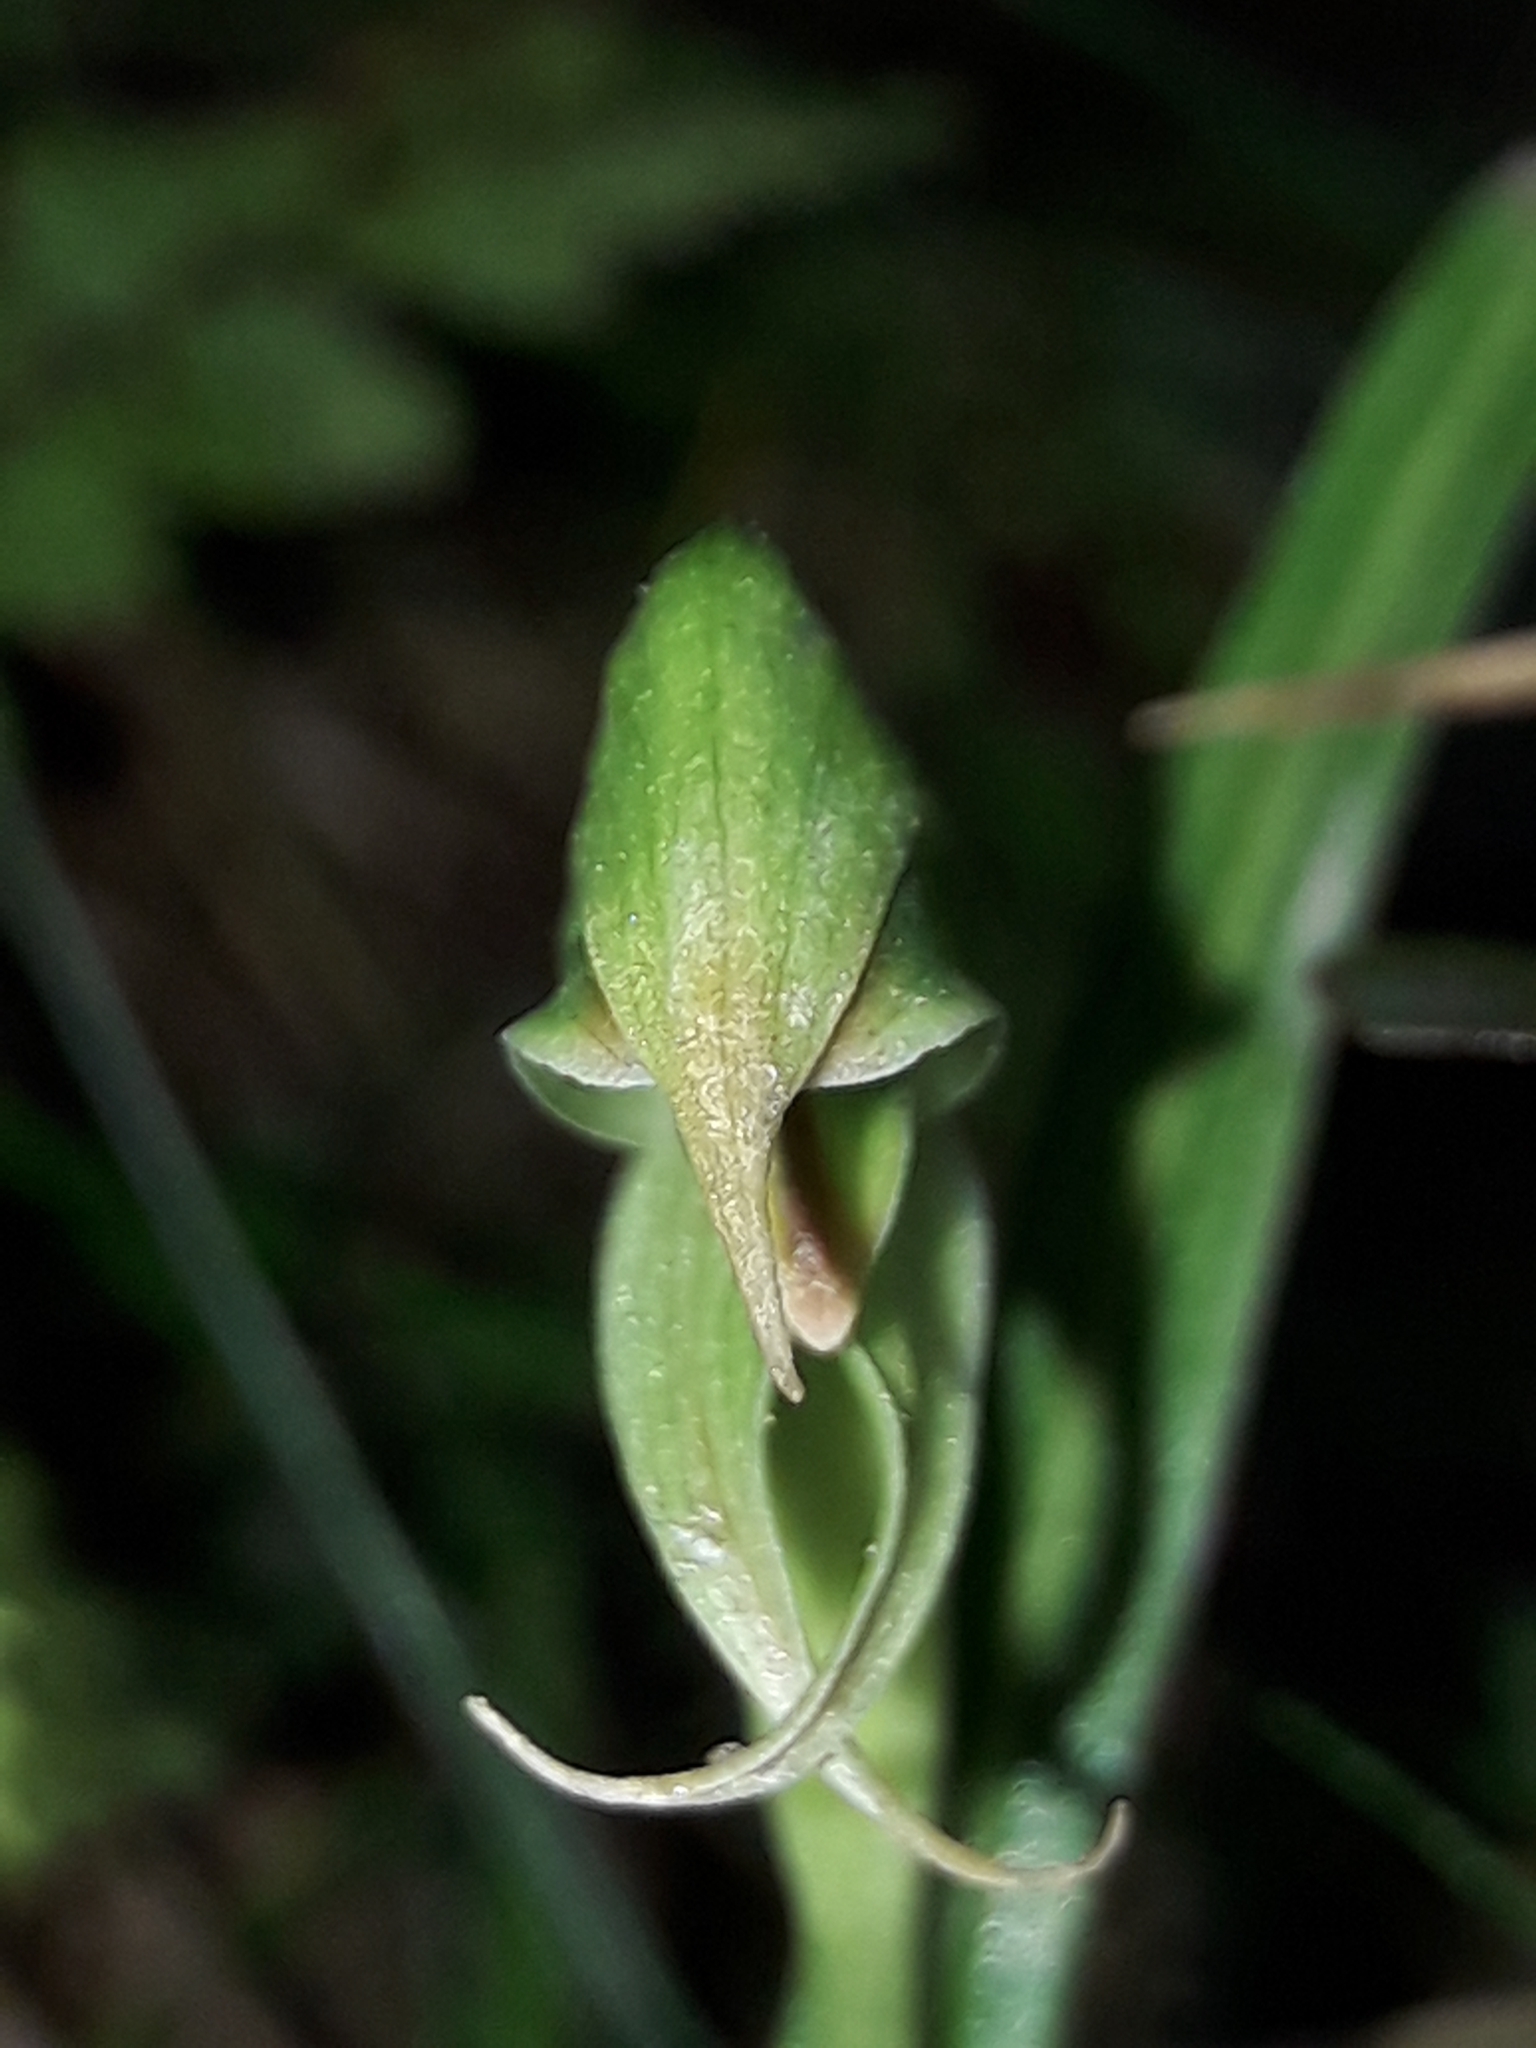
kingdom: Plantae
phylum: Tracheophyta
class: Liliopsida
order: Asparagales
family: Orchidaceae
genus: Pterostylis
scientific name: Pterostylis porrecta
